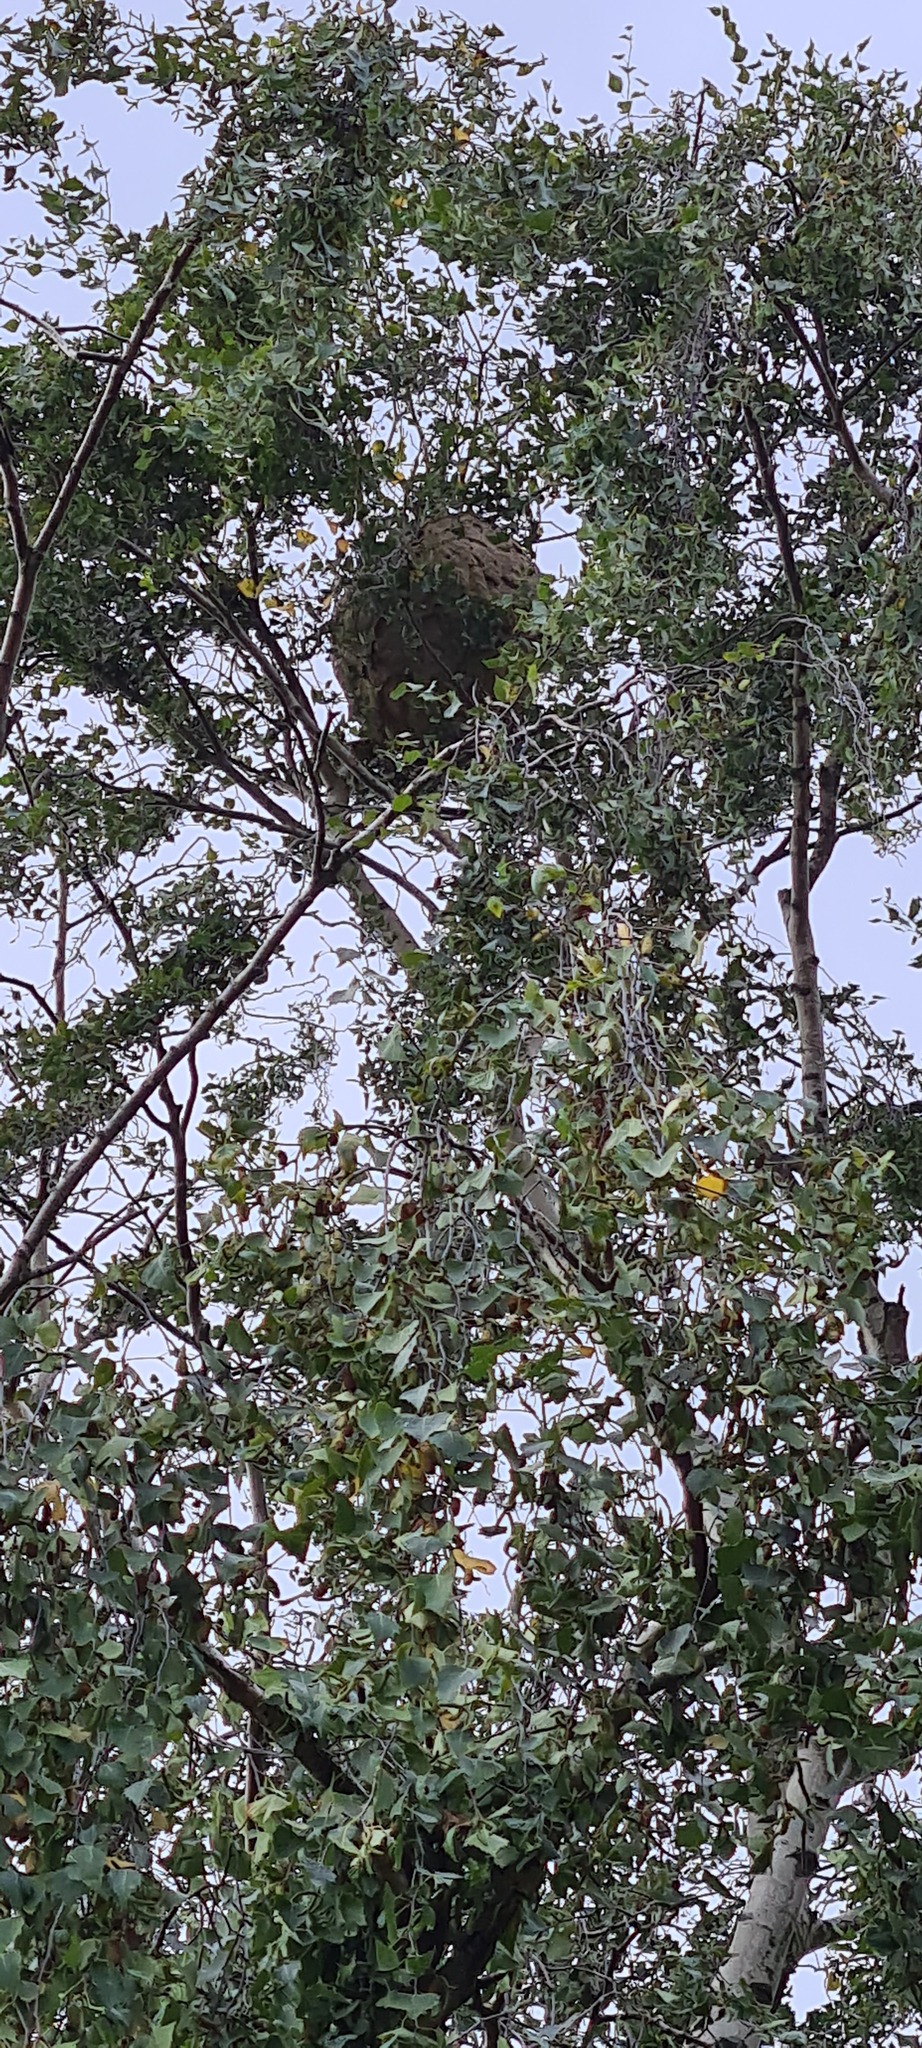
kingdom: Animalia
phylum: Arthropoda
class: Insecta
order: Hymenoptera
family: Vespidae
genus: Vespa
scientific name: Vespa velutina
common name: Asian hornet
